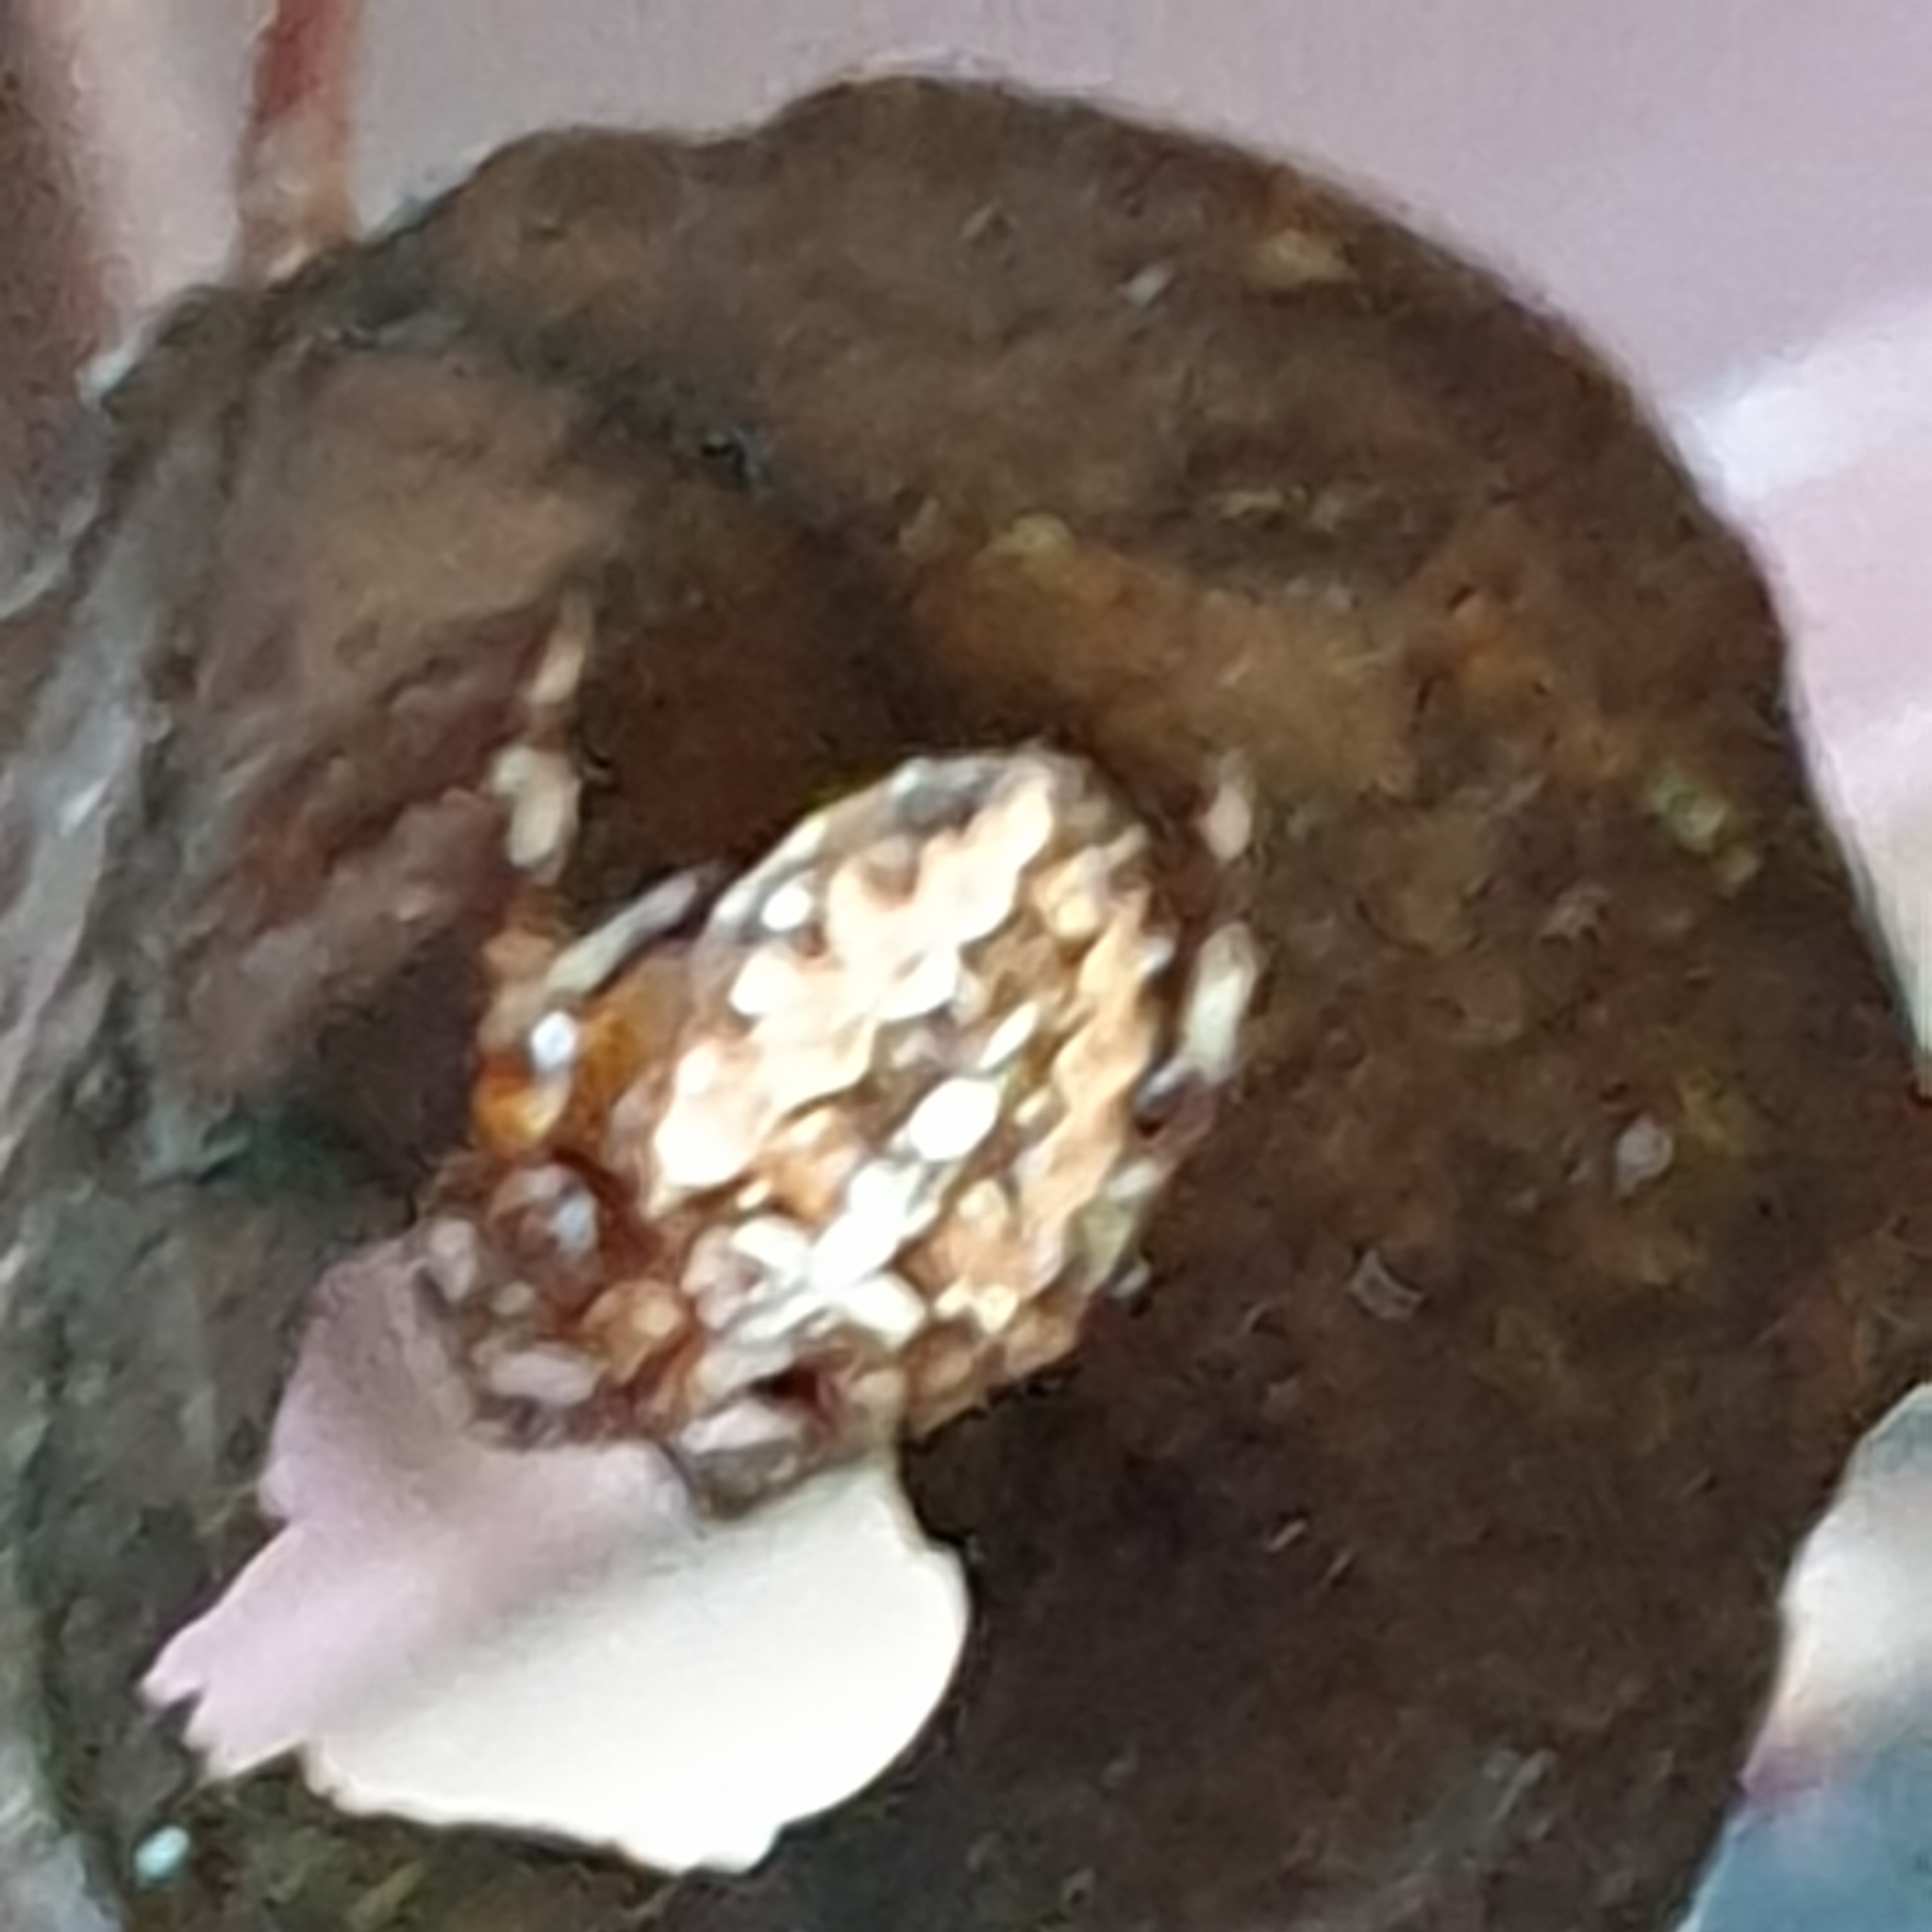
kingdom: Animalia
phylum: Arthropoda
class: Arachnida
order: Araneae
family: Araneidae
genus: Araneus
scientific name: Araneus diadematus
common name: Cross orbweaver
